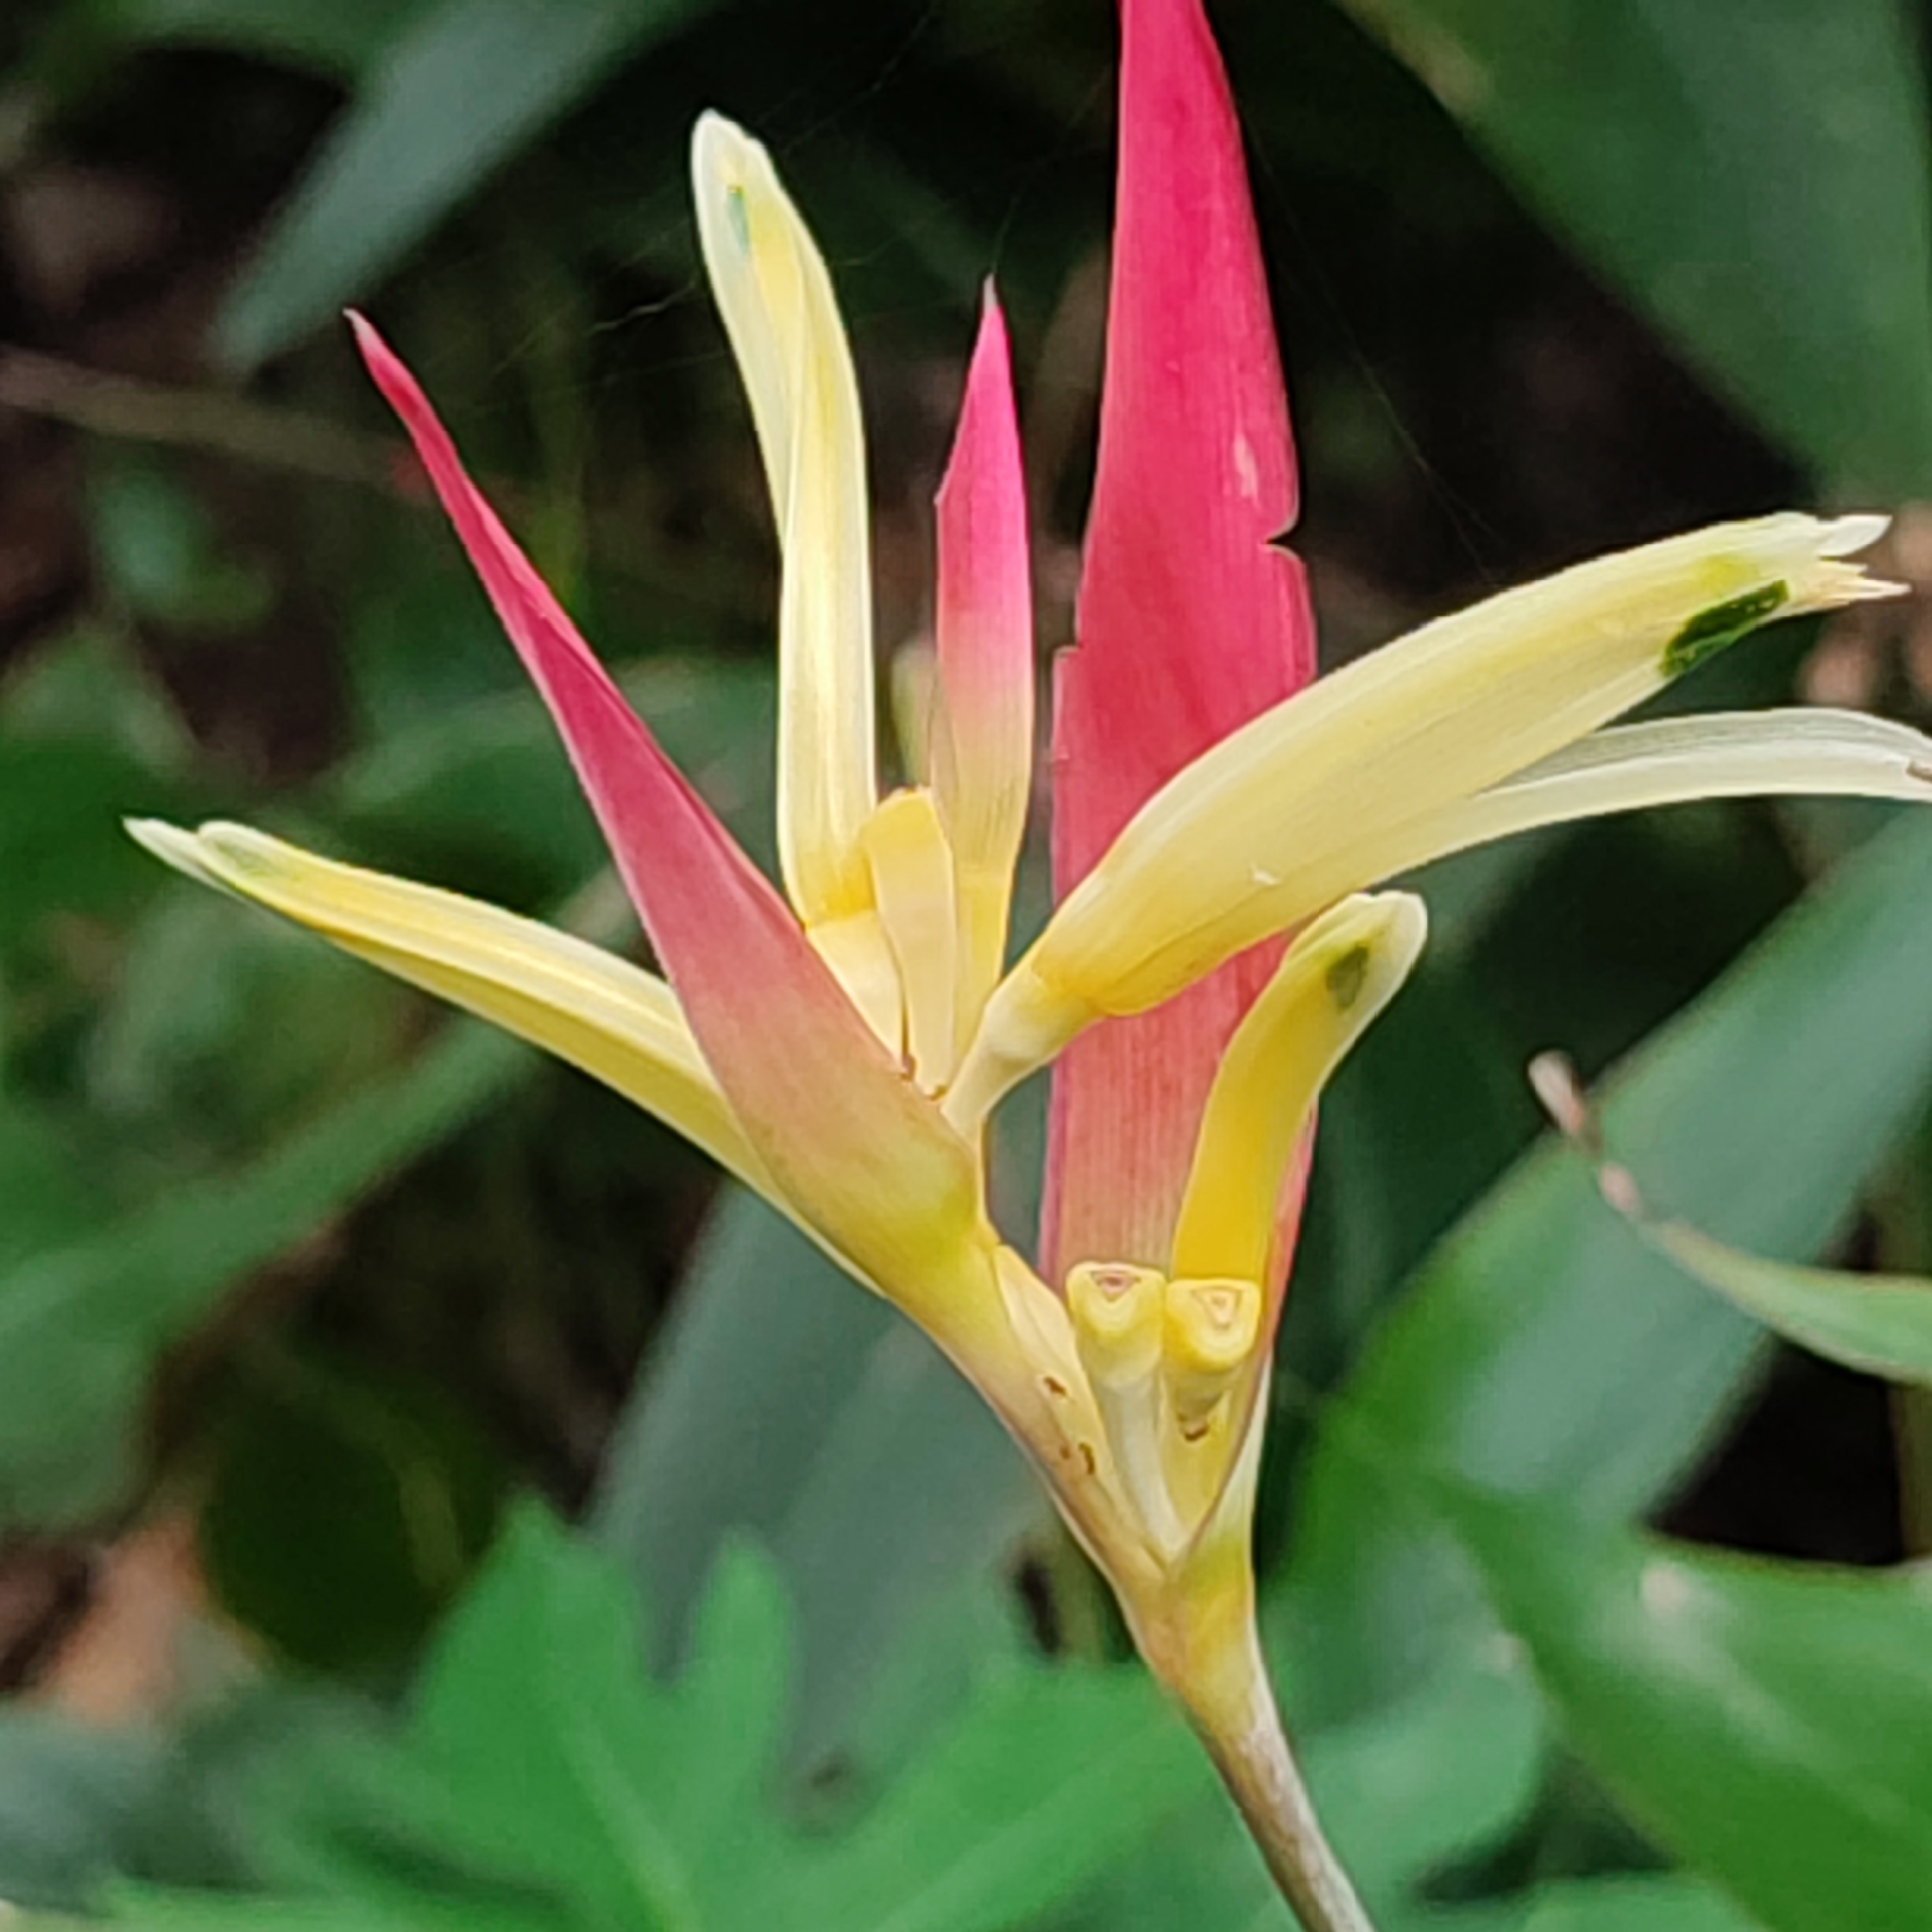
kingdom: Plantae
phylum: Tracheophyta
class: Liliopsida
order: Zingiberales
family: Heliconiaceae
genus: Heliconia
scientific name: Heliconia psittacorum
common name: Parrot's-flower
